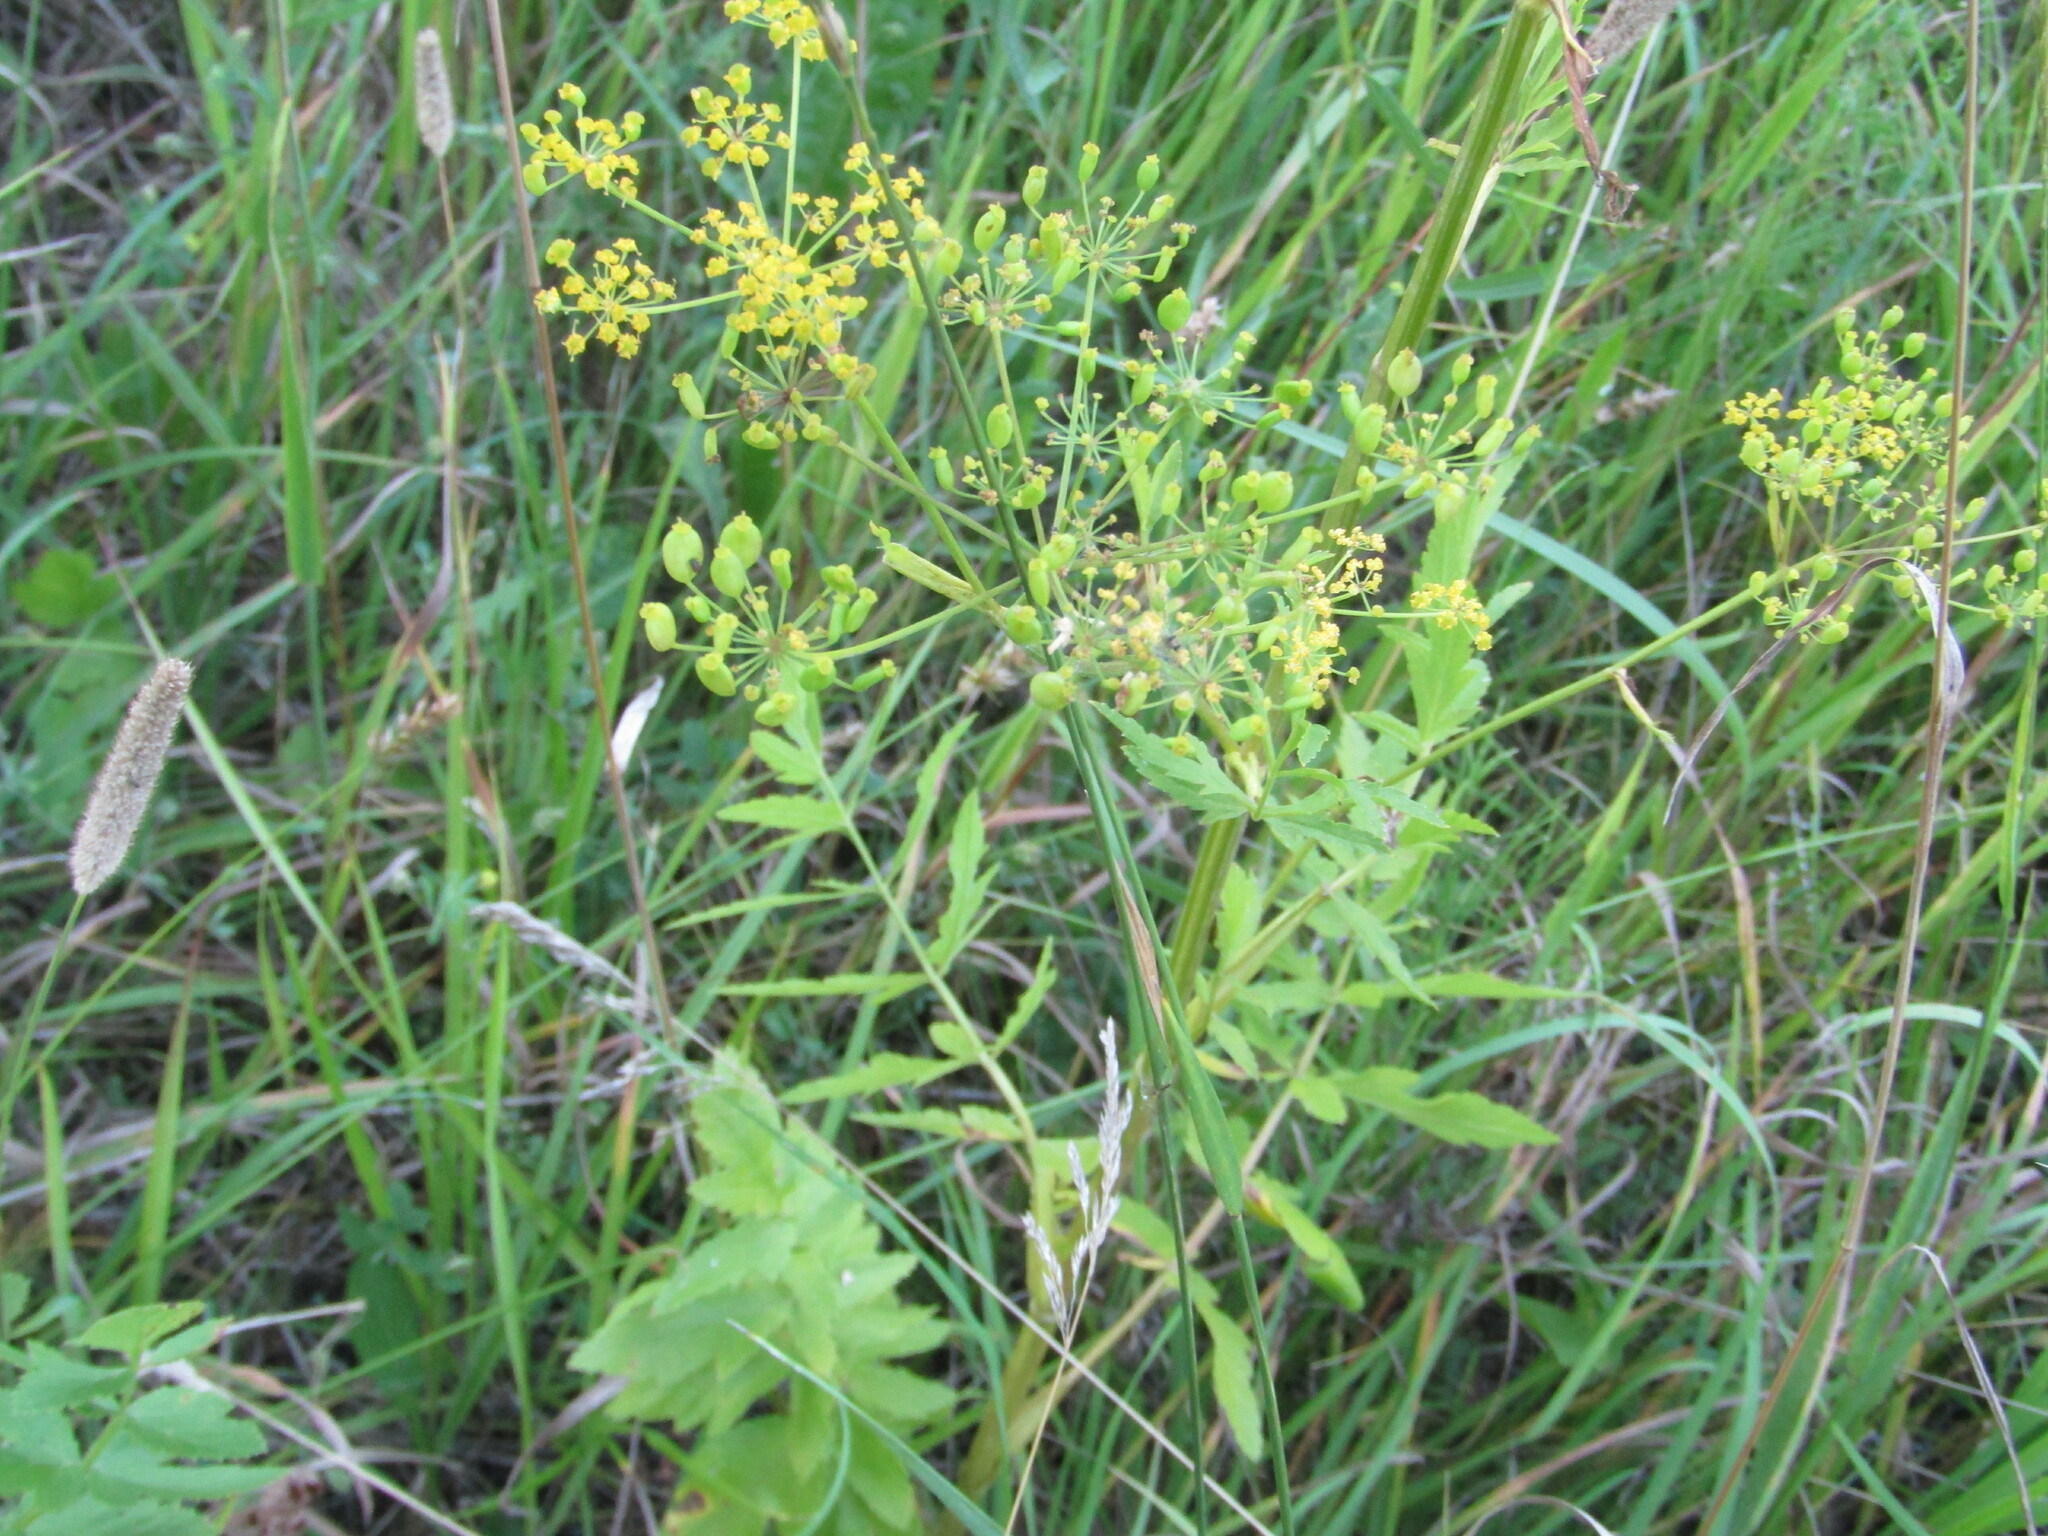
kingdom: Plantae
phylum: Tracheophyta
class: Magnoliopsida
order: Apiales
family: Apiaceae
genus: Pastinaca
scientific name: Pastinaca sativa
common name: Wild parsnip
